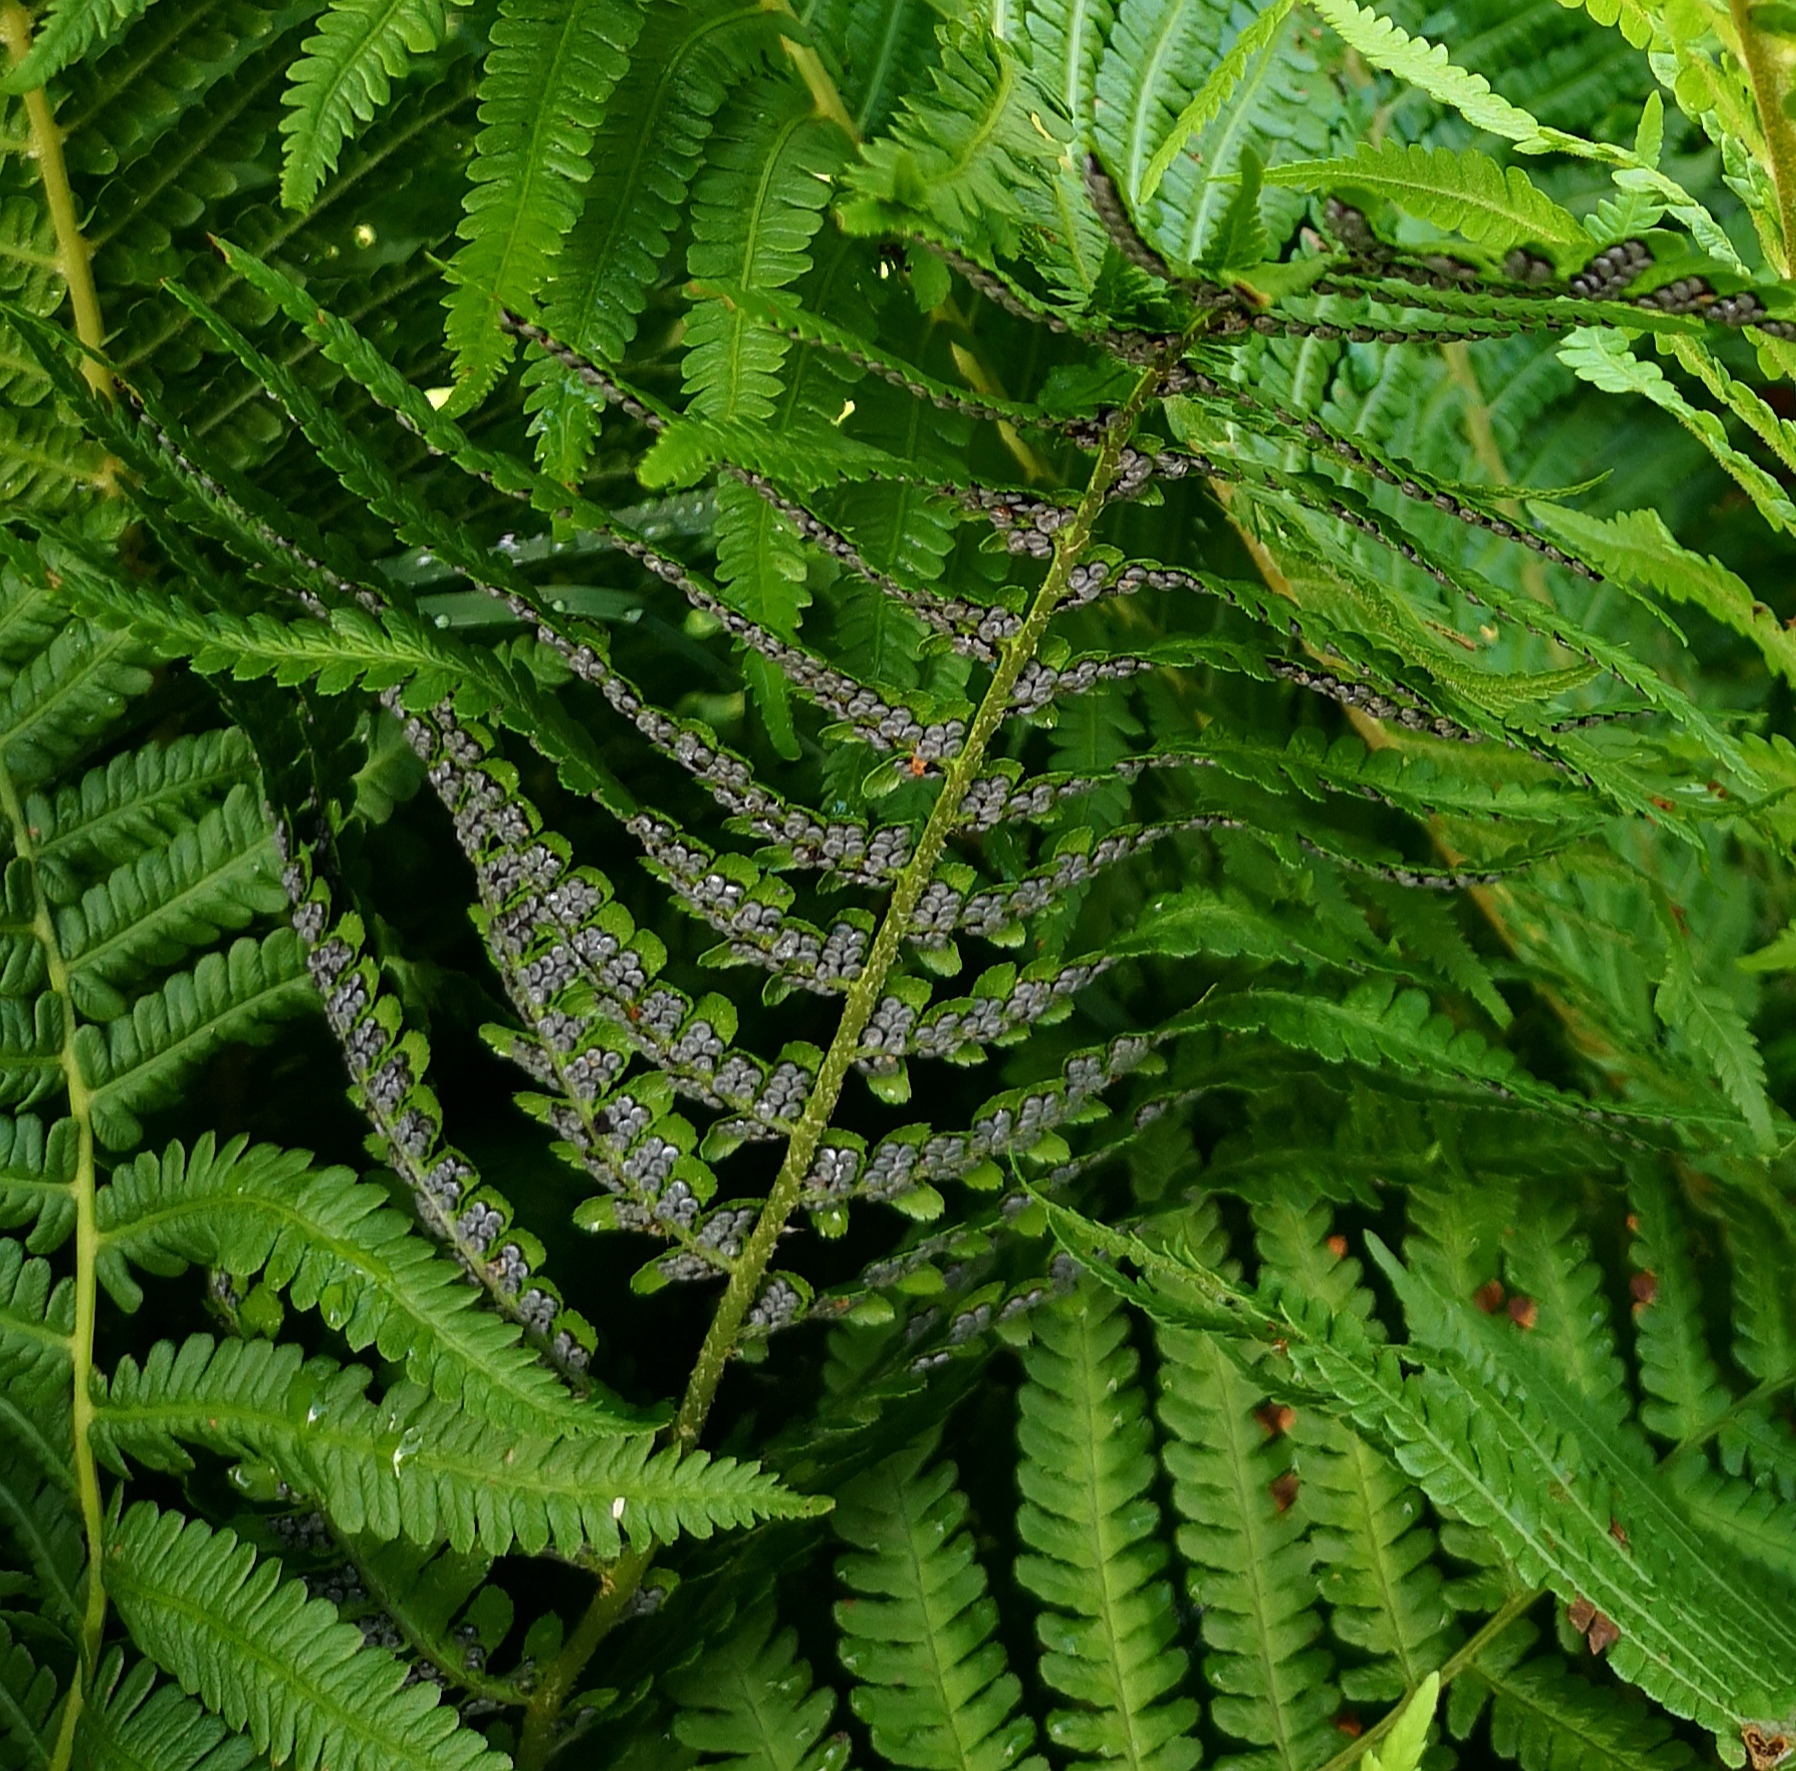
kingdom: Plantae
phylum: Tracheophyta
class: Polypodiopsida
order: Polypodiales
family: Onocleaceae
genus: Matteuccia
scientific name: Matteuccia struthiopteris
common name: Ostrich fern
